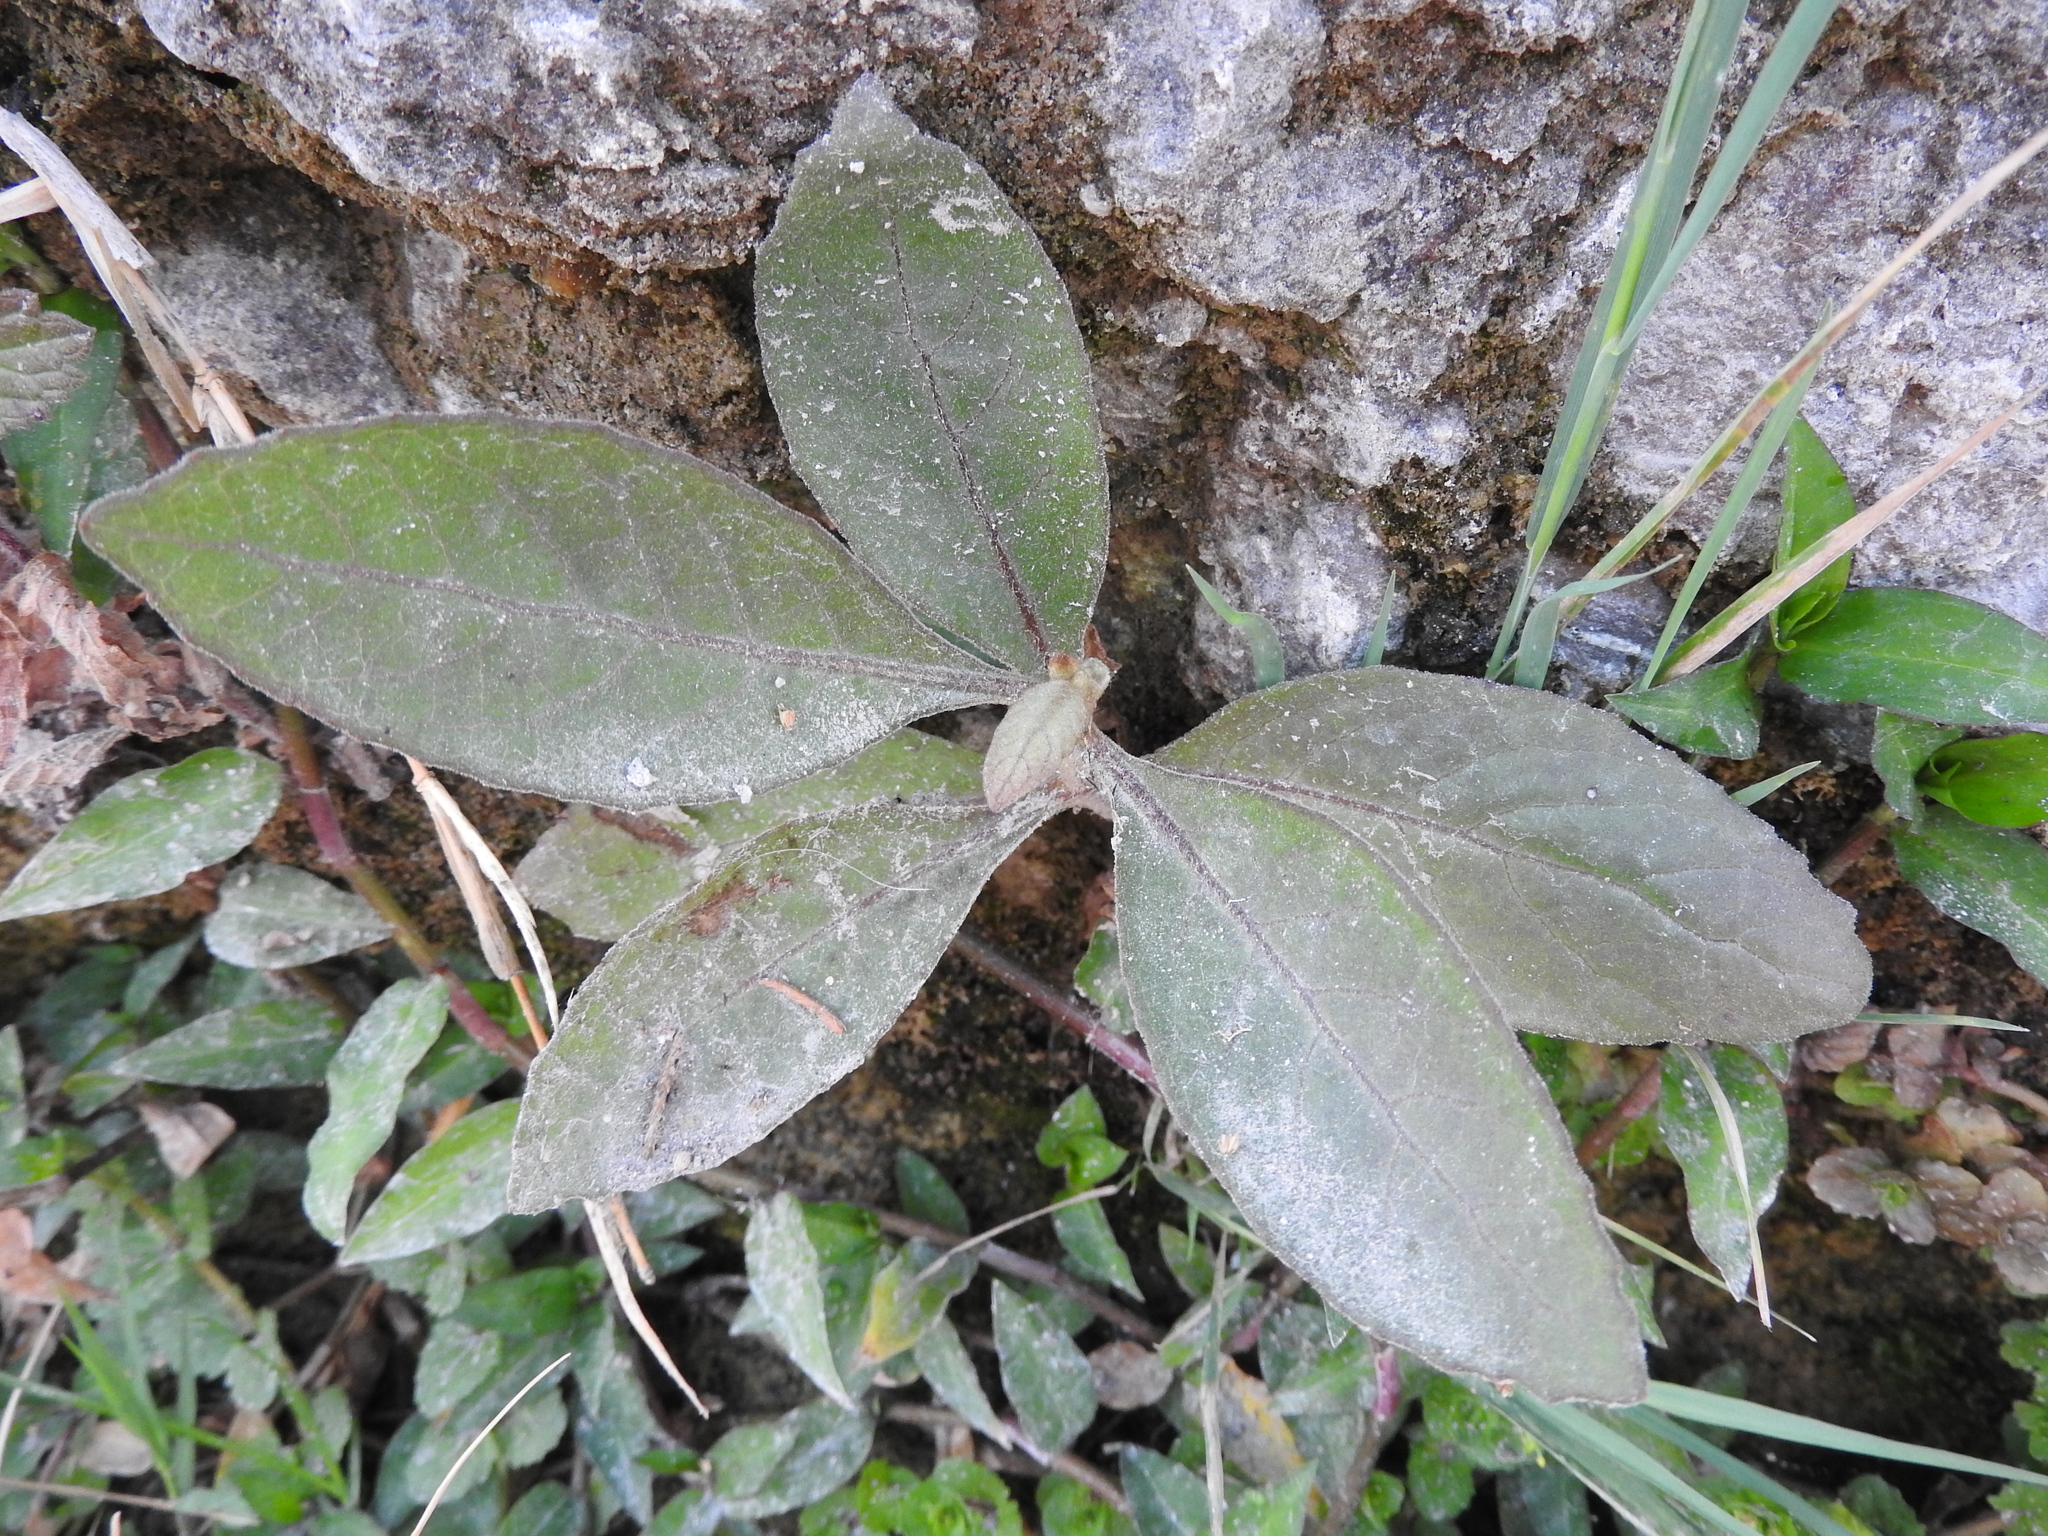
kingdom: Plantae
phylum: Tracheophyta
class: Magnoliopsida
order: Lamiales
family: Scrophulariaceae
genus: Buddleja
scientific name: Buddleja cordata
